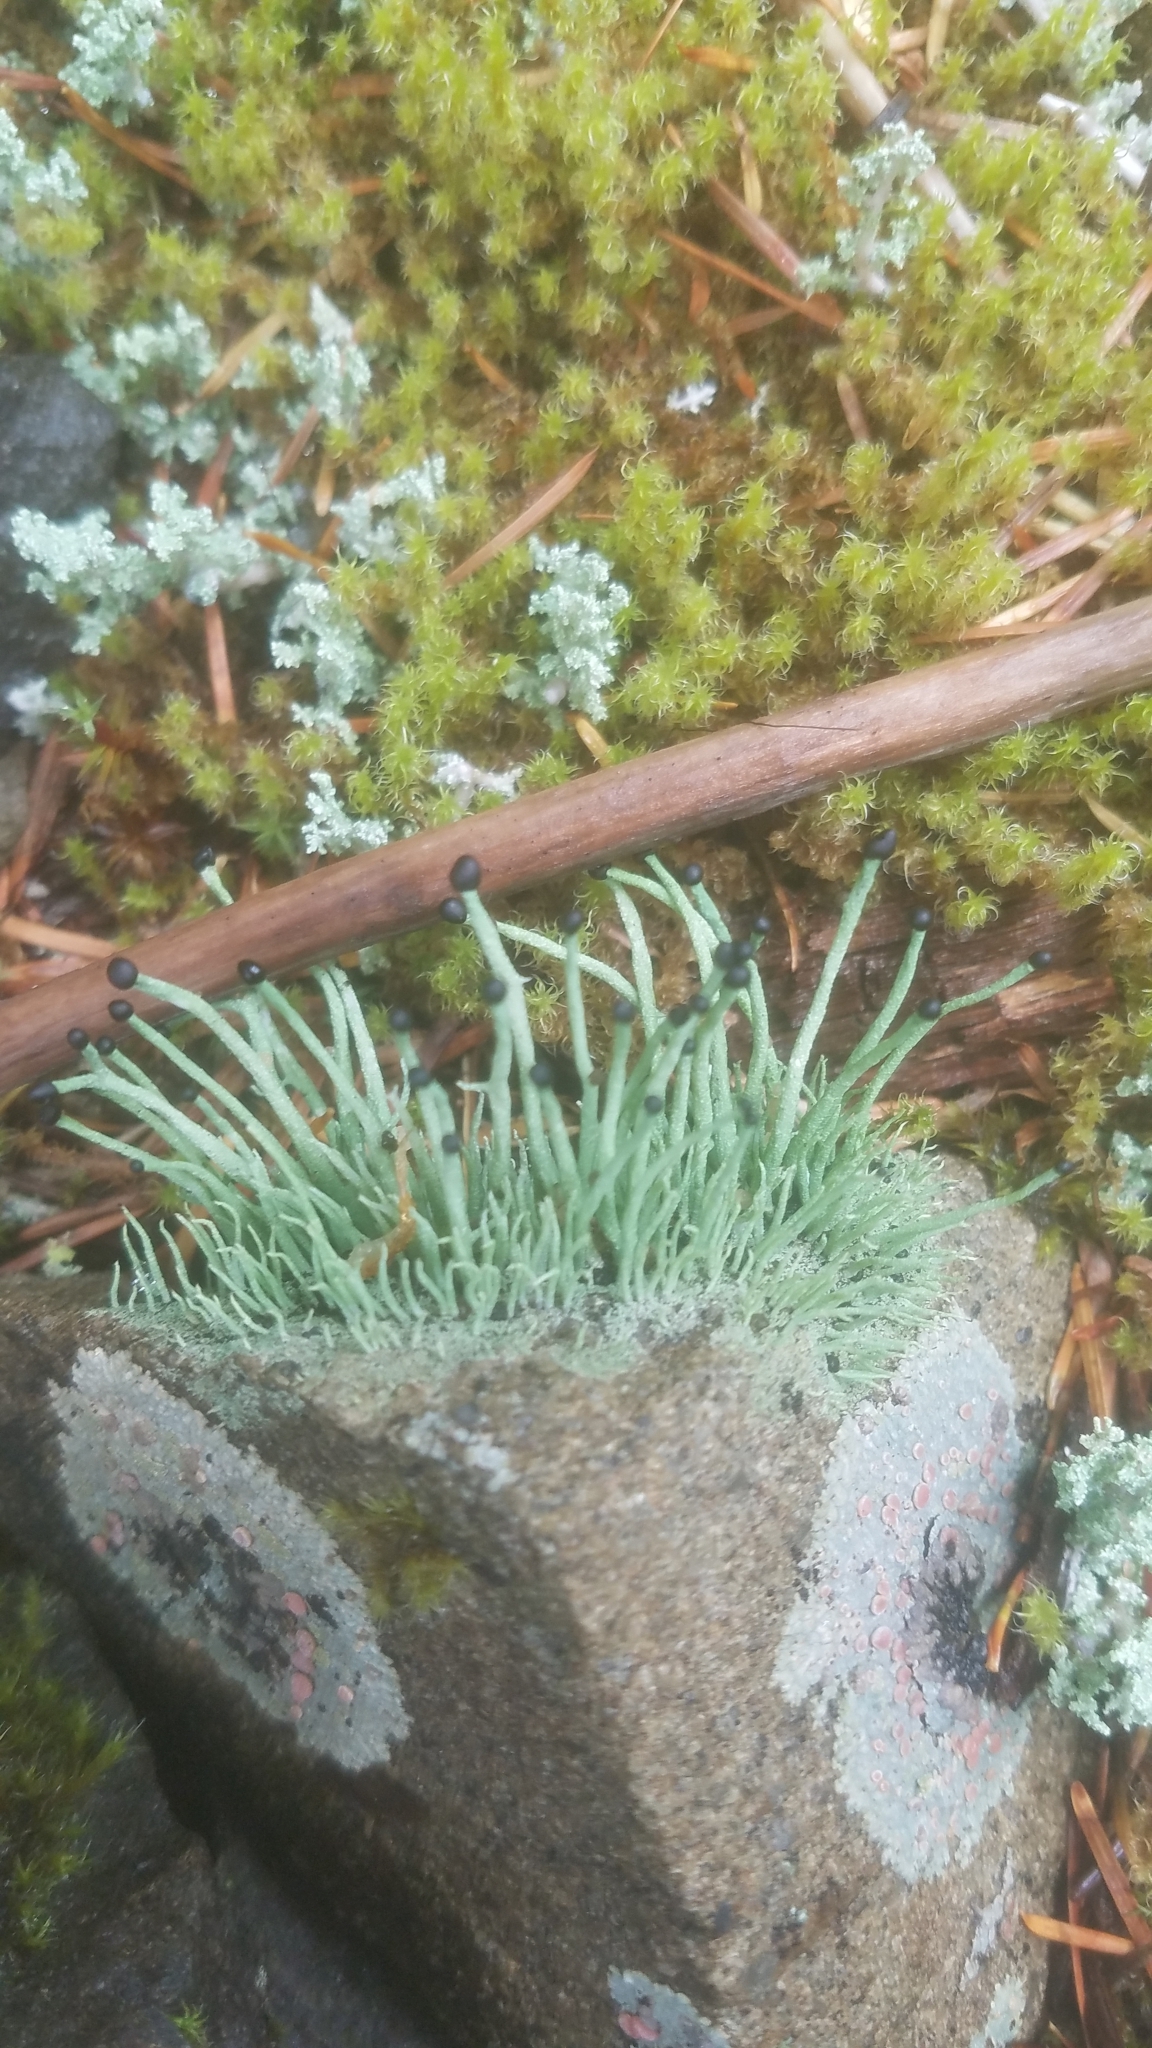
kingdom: Fungi
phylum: Ascomycota
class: Lecanoromycetes
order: Lecanorales
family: Cladoniaceae
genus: Pilophorus
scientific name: Pilophorus acicularis
